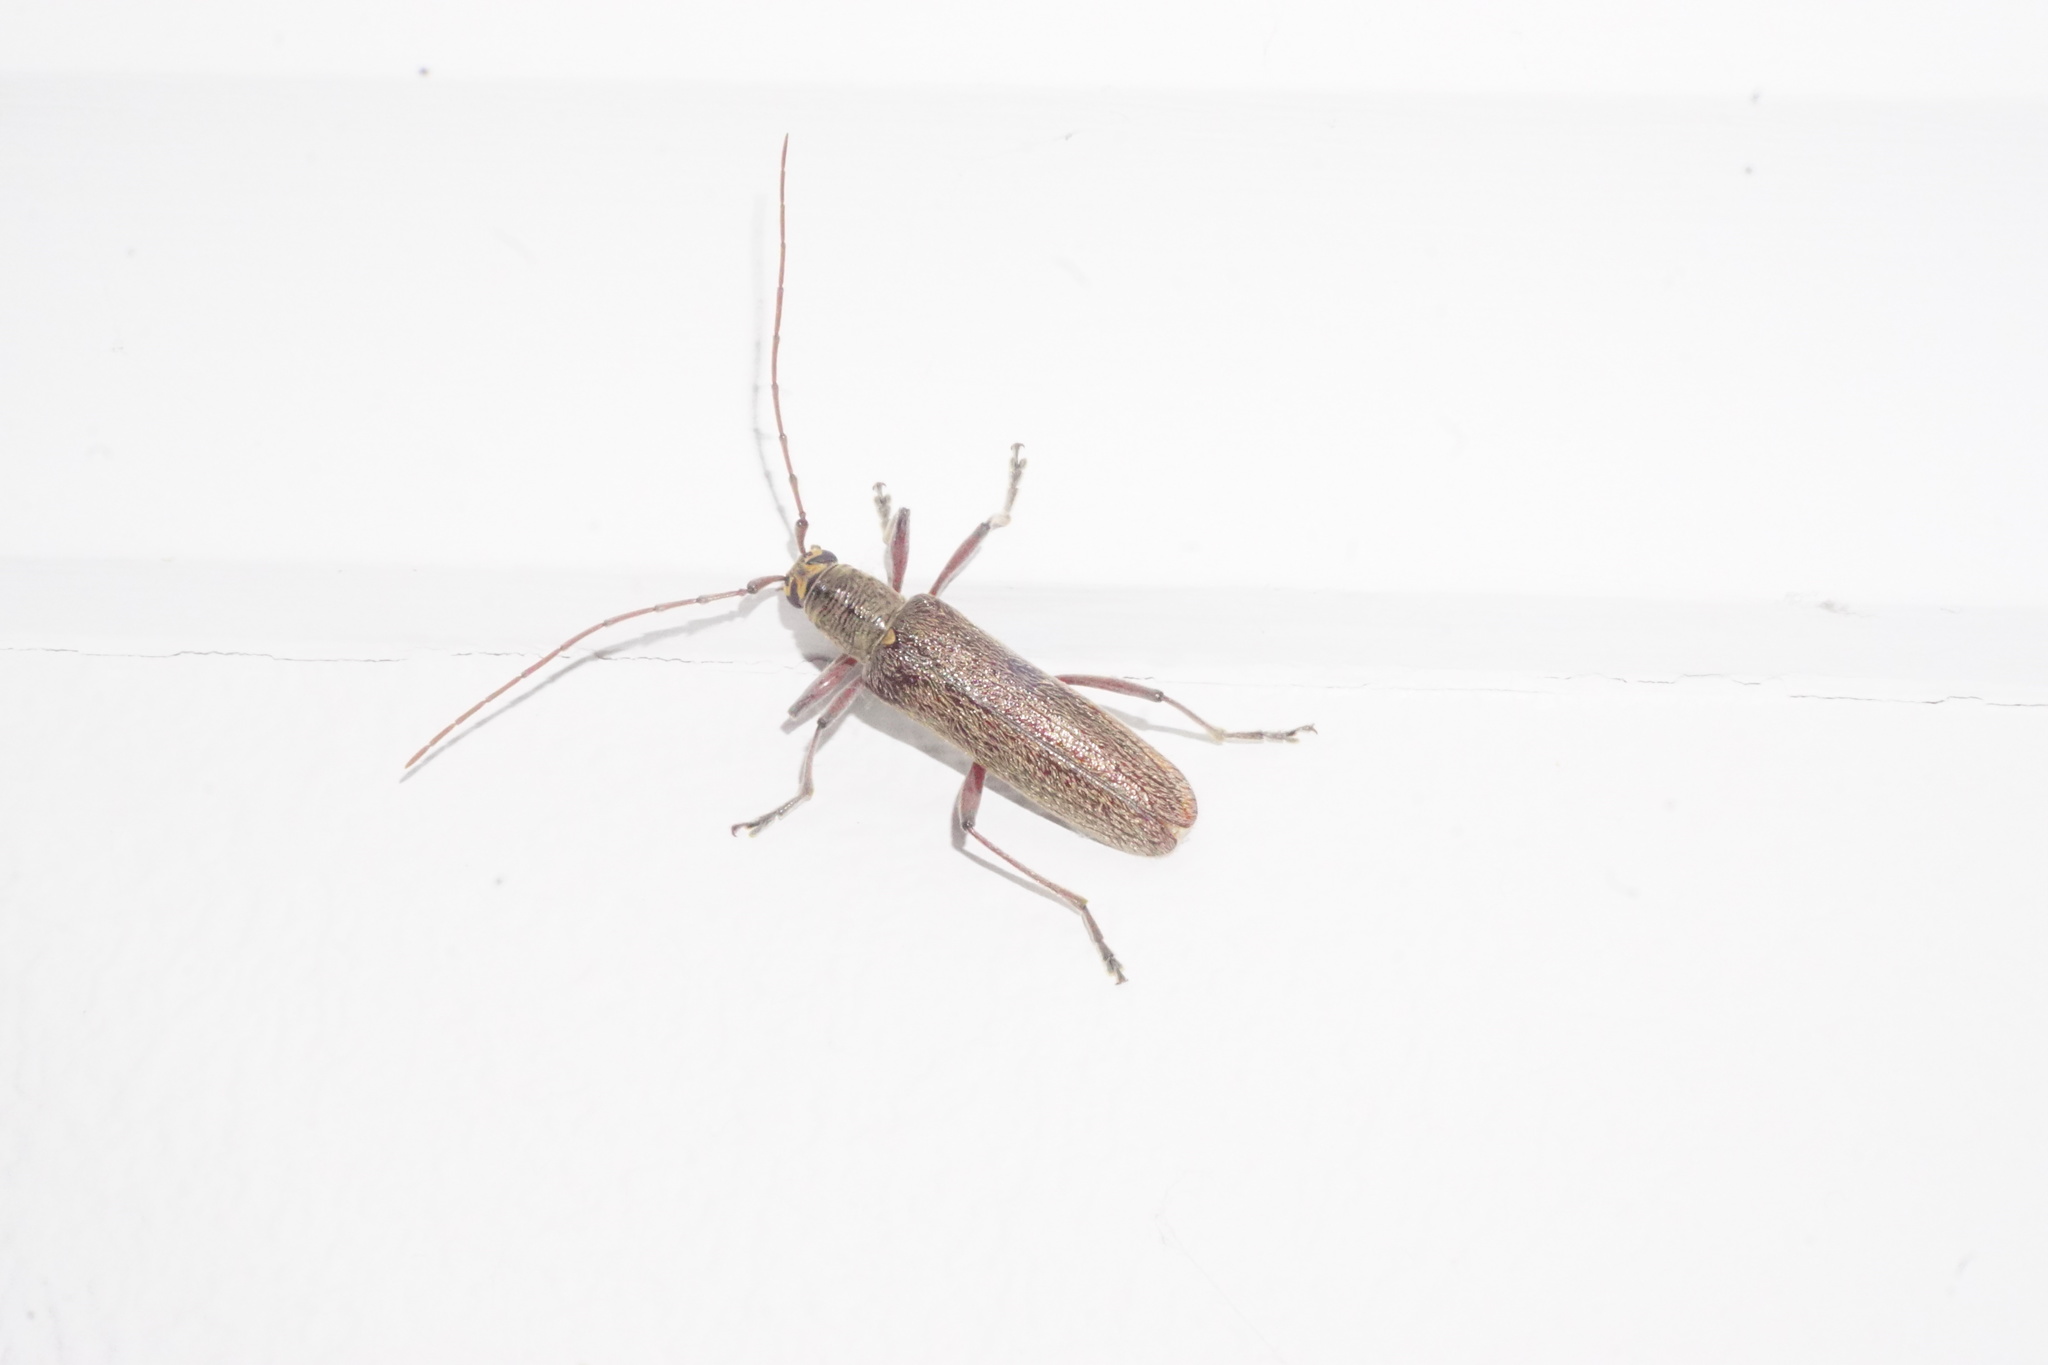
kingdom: Animalia
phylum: Arthropoda
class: Insecta
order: Coleoptera
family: Cerambycidae
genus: Oemona
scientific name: Oemona hirta
